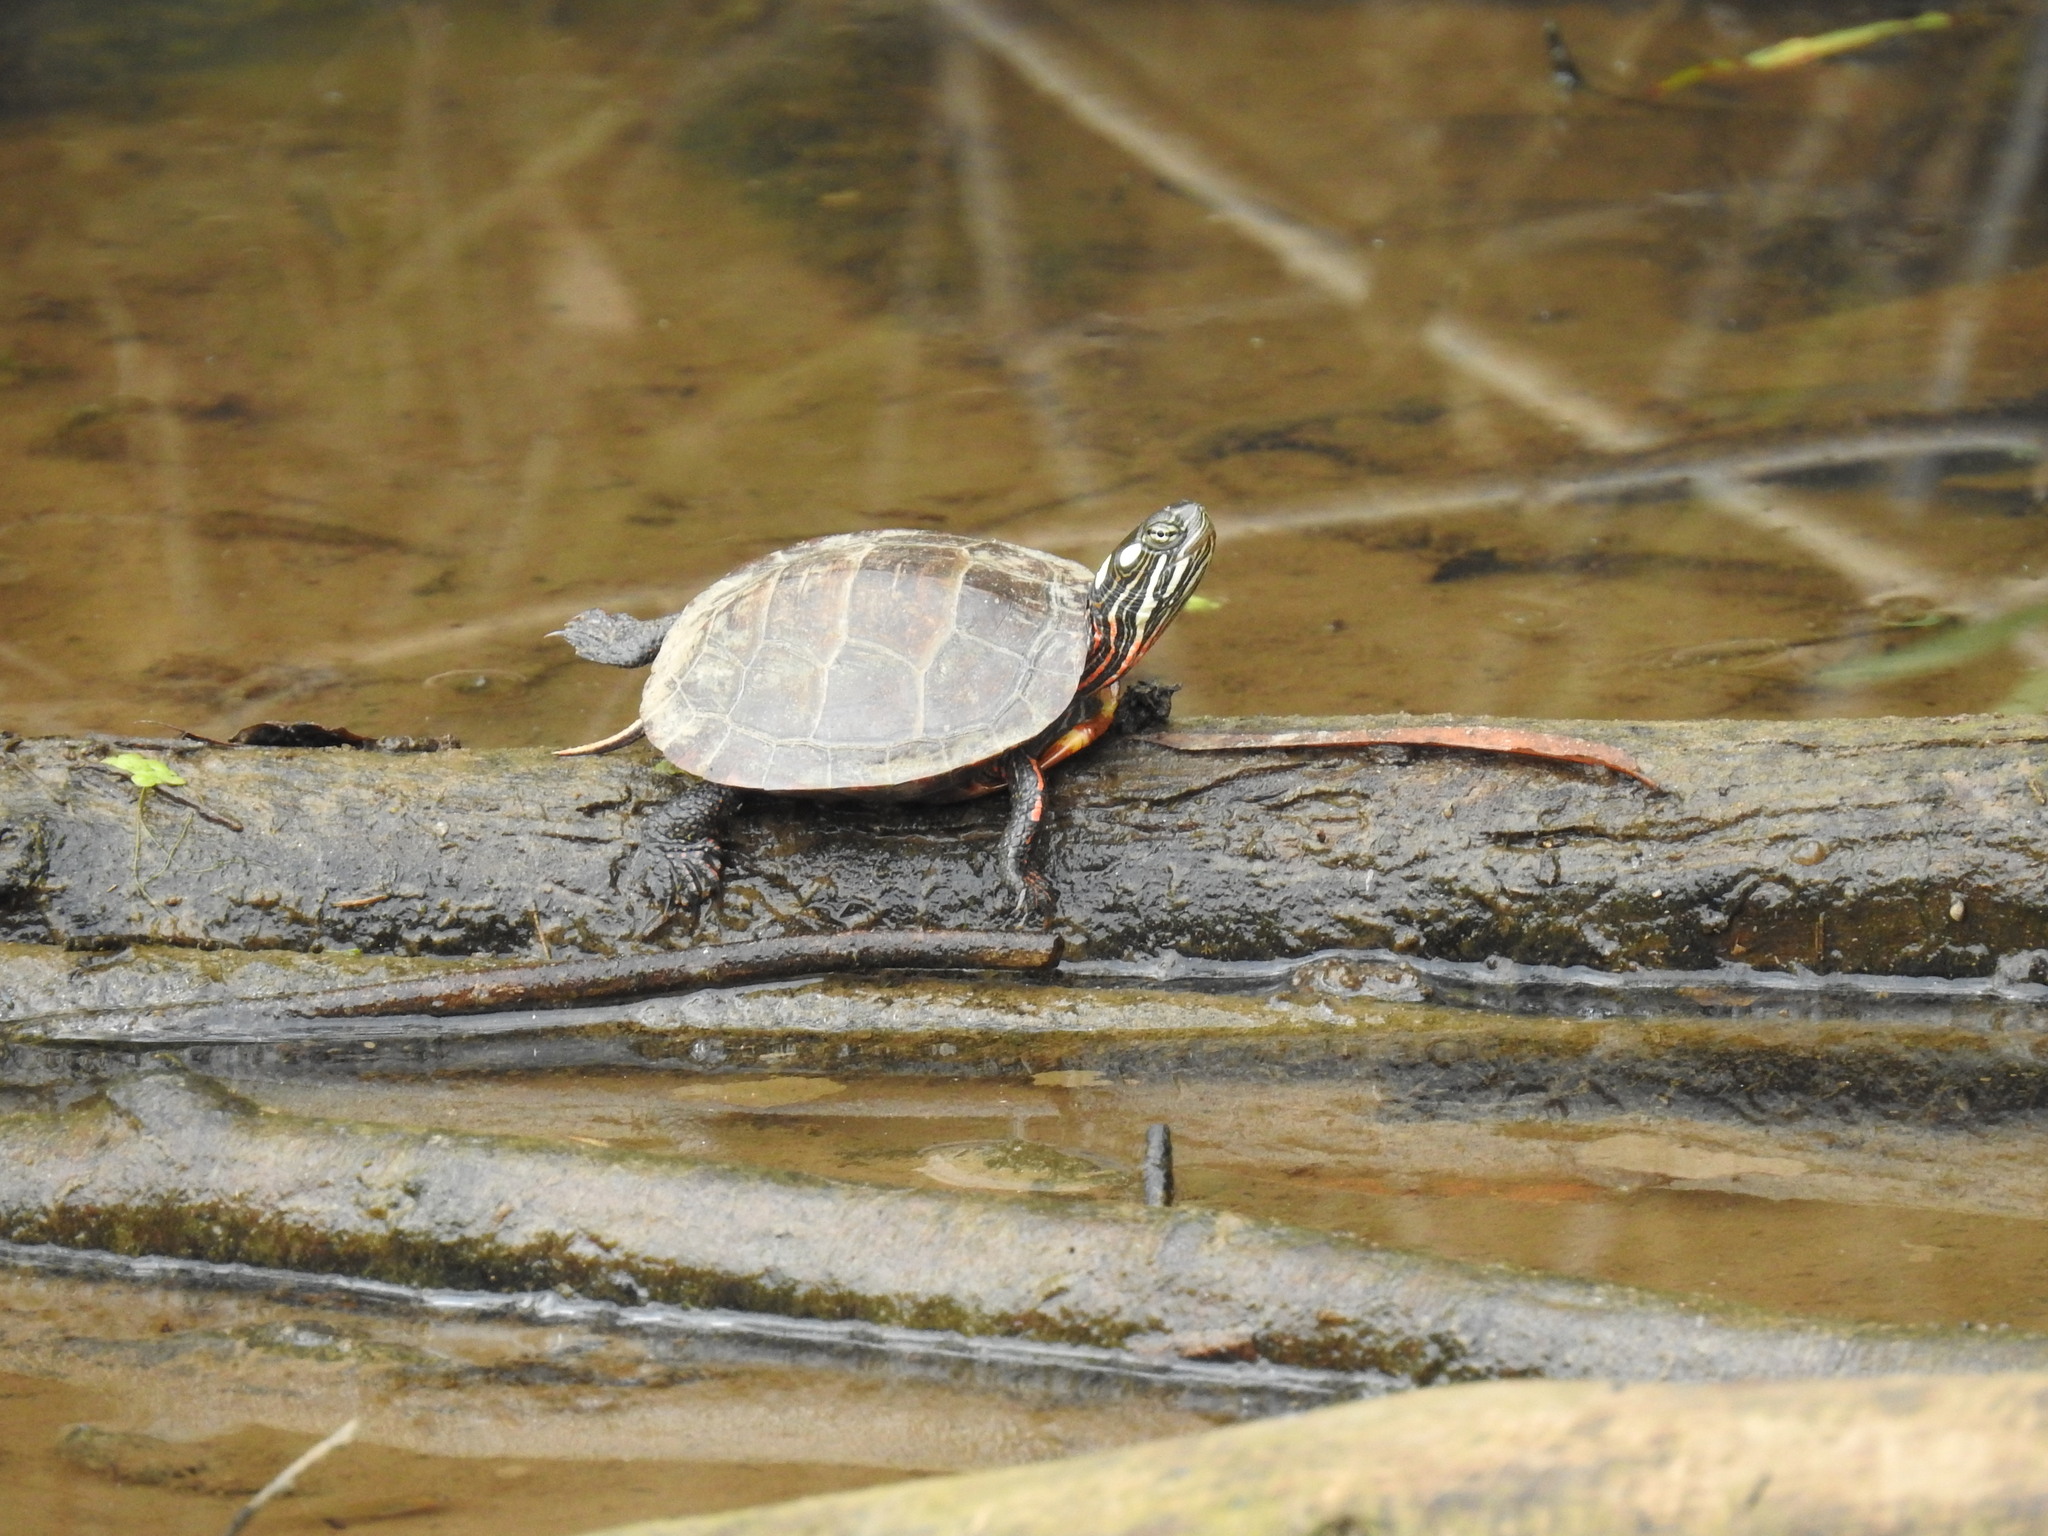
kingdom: Animalia
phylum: Chordata
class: Testudines
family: Emydidae
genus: Chrysemys
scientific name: Chrysemys picta
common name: Painted turtle
